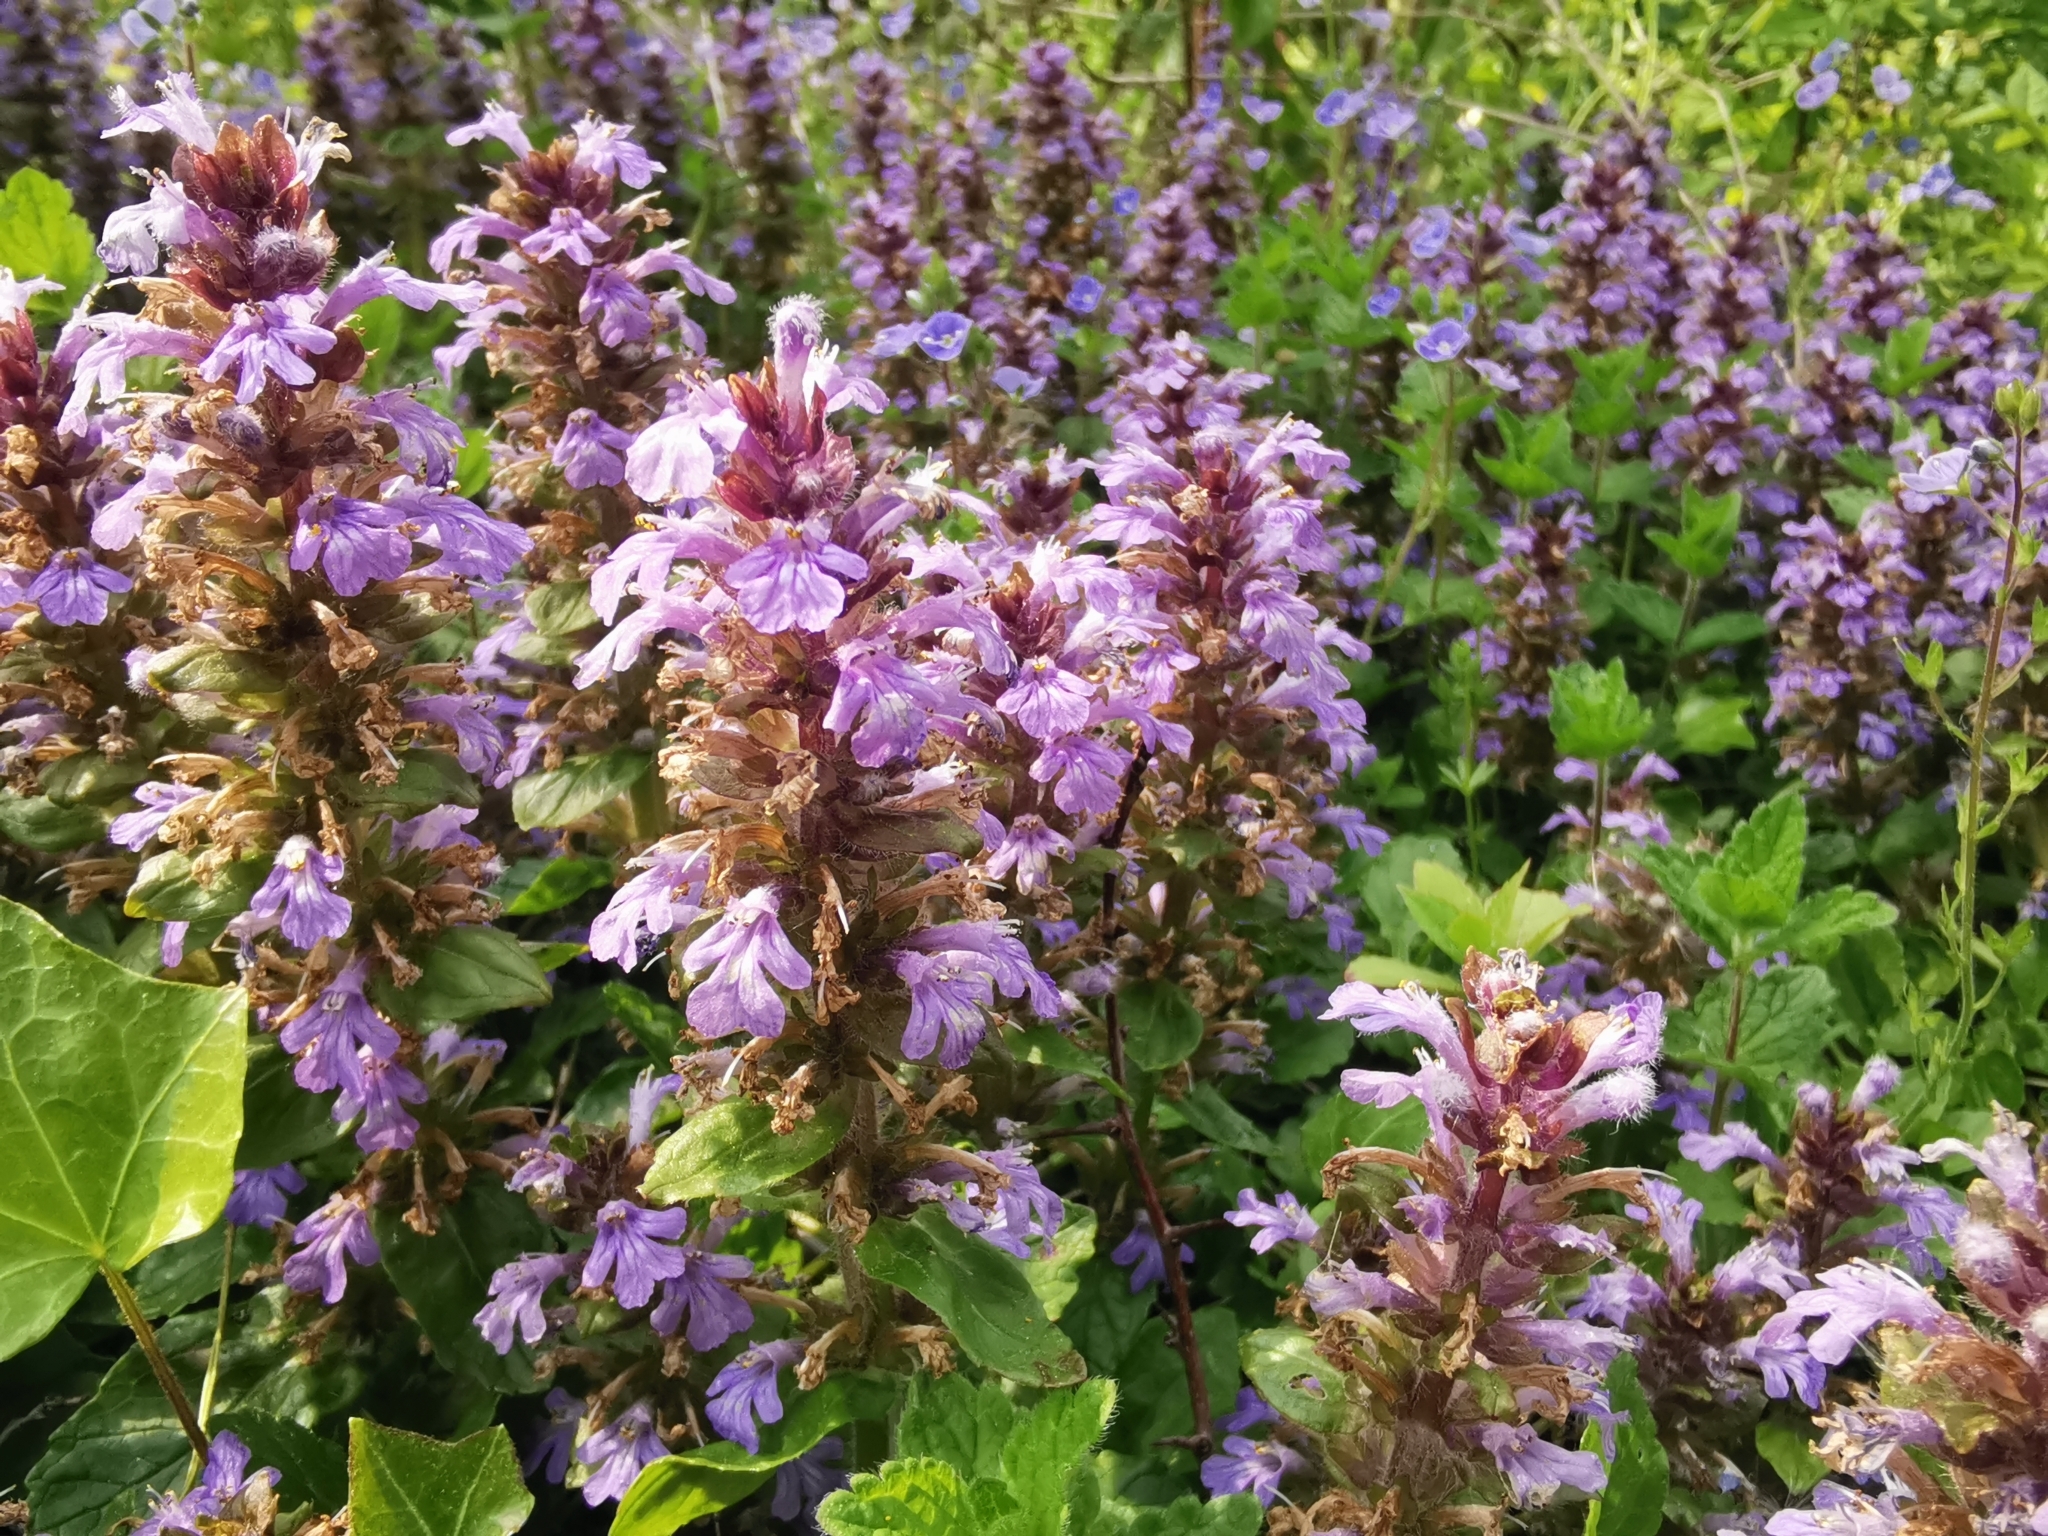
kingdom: Plantae
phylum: Tracheophyta
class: Magnoliopsida
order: Lamiales
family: Lamiaceae
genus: Ajuga
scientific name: Ajuga reptans
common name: Bugle
